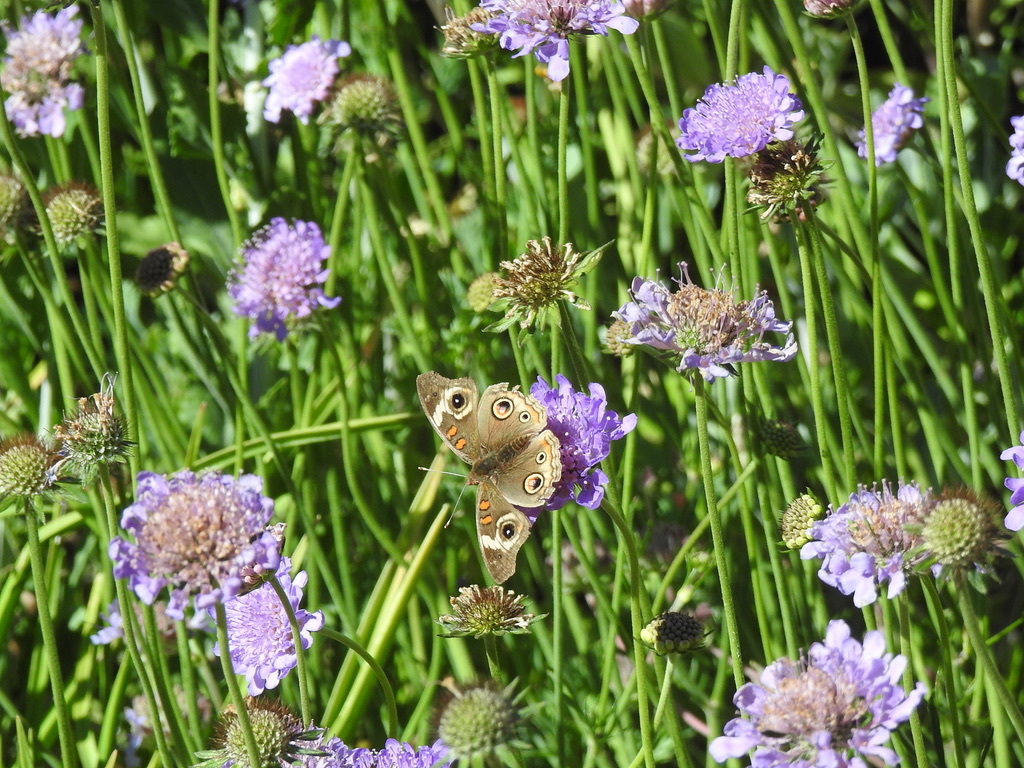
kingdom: Animalia
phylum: Arthropoda
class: Insecta
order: Lepidoptera
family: Nymphalidae
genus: Junonia
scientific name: Junonia grisea
